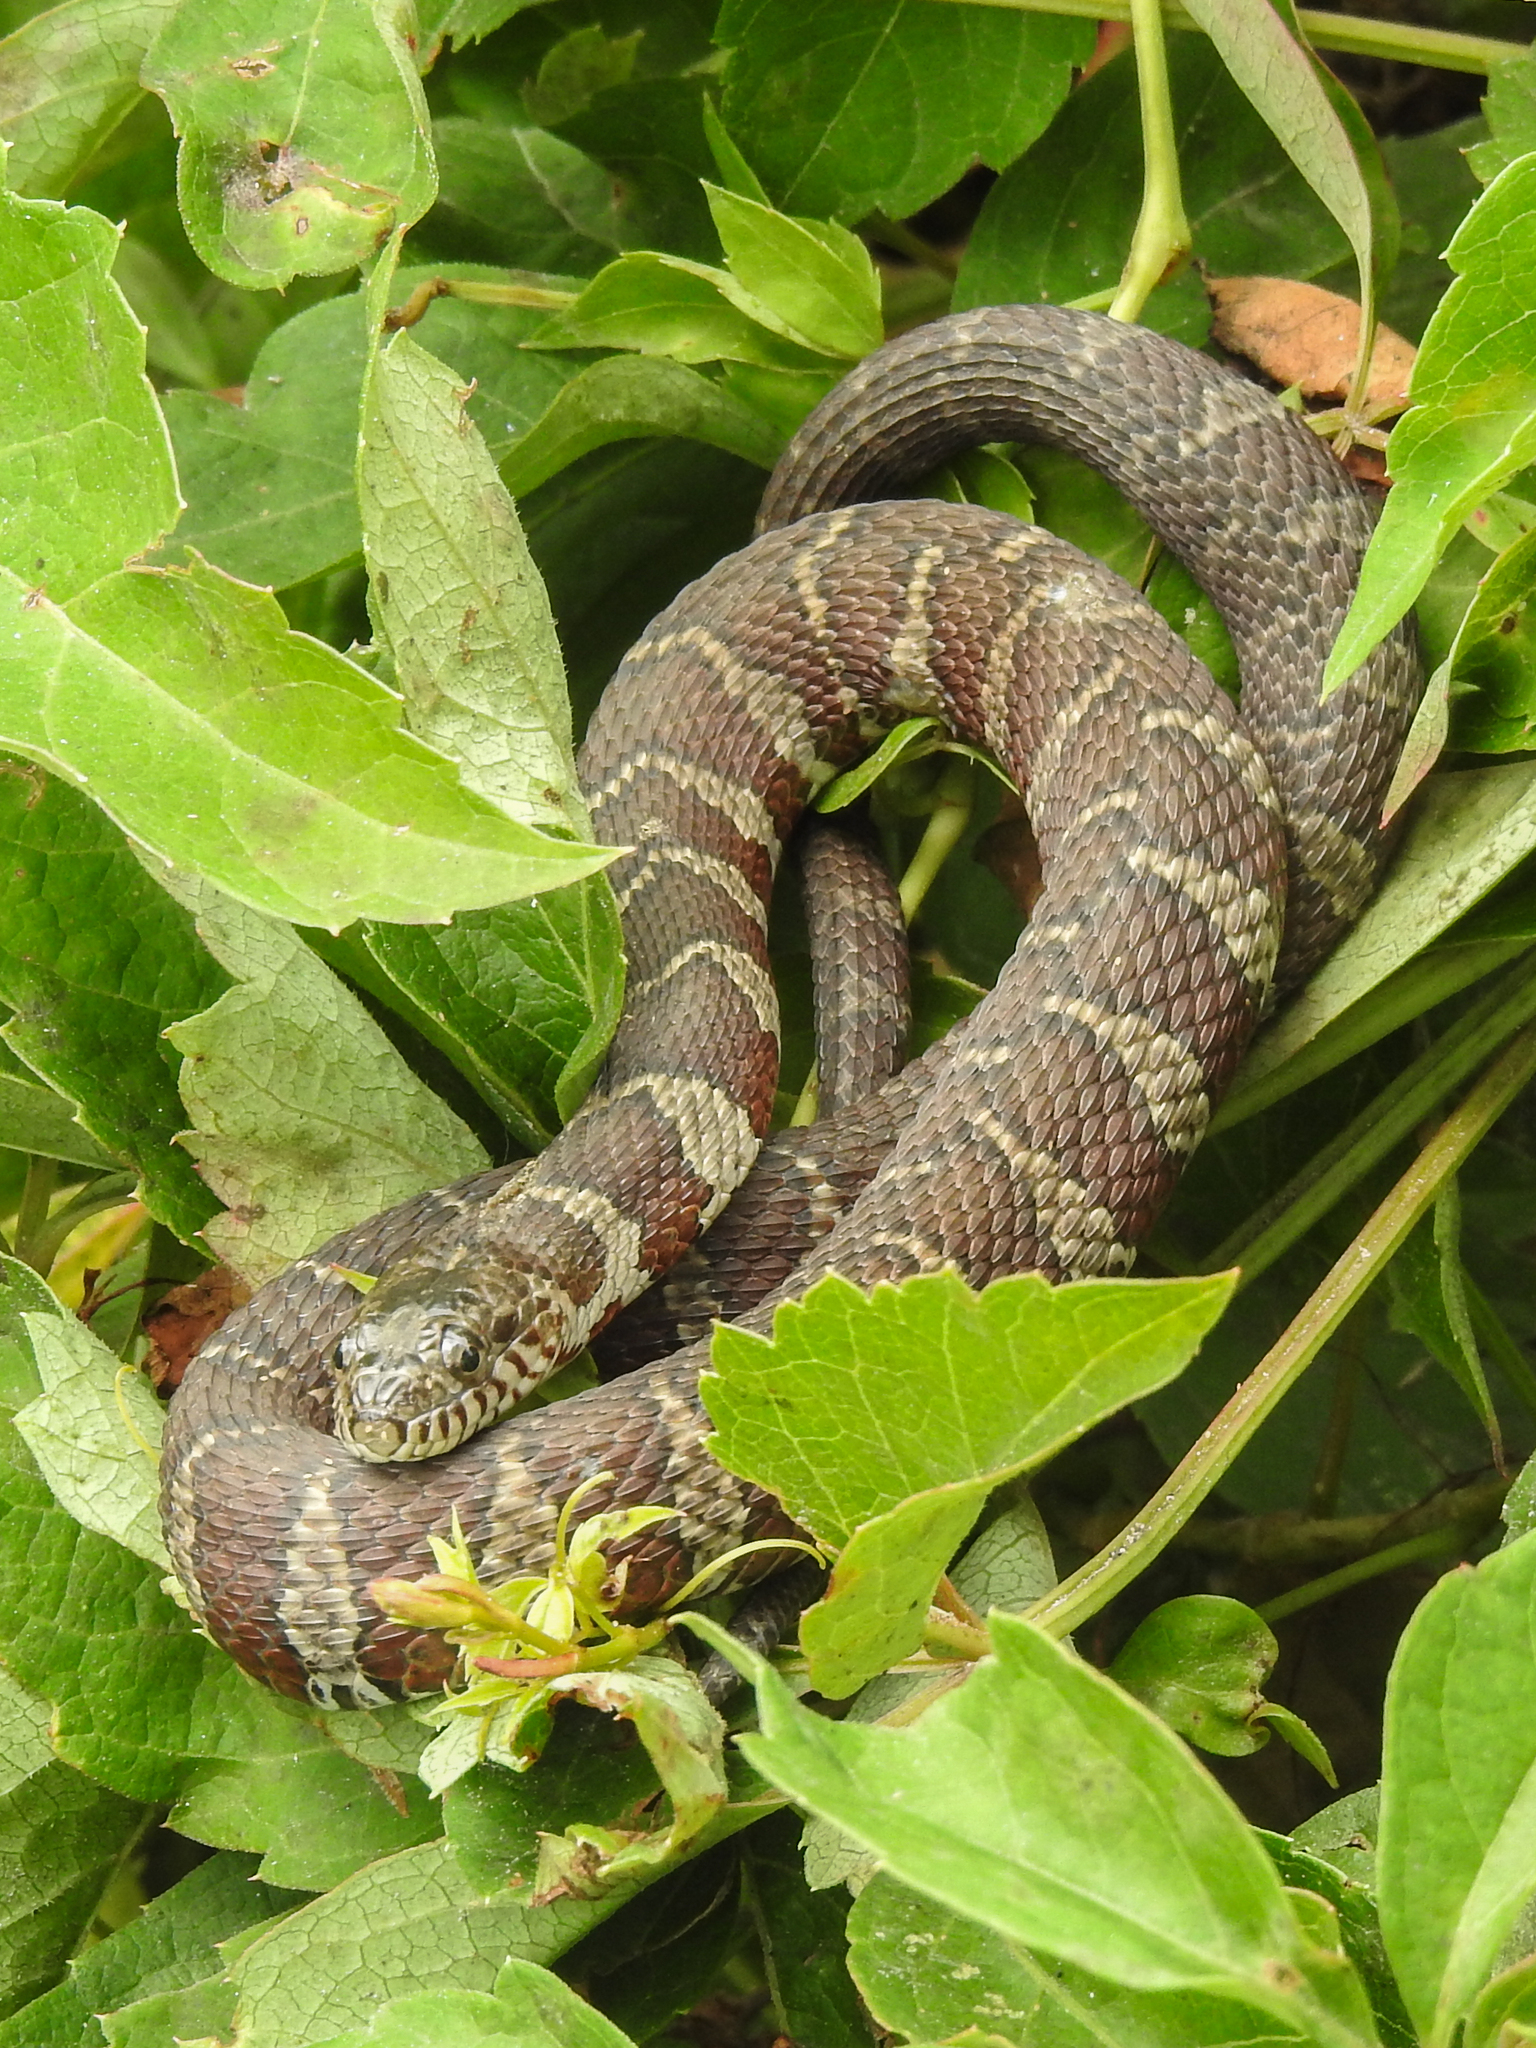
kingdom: Animalia
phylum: Chordata
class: Squamata
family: Colubridae
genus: Nerodia
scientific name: Nerodia sipedon
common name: Northern water snake
